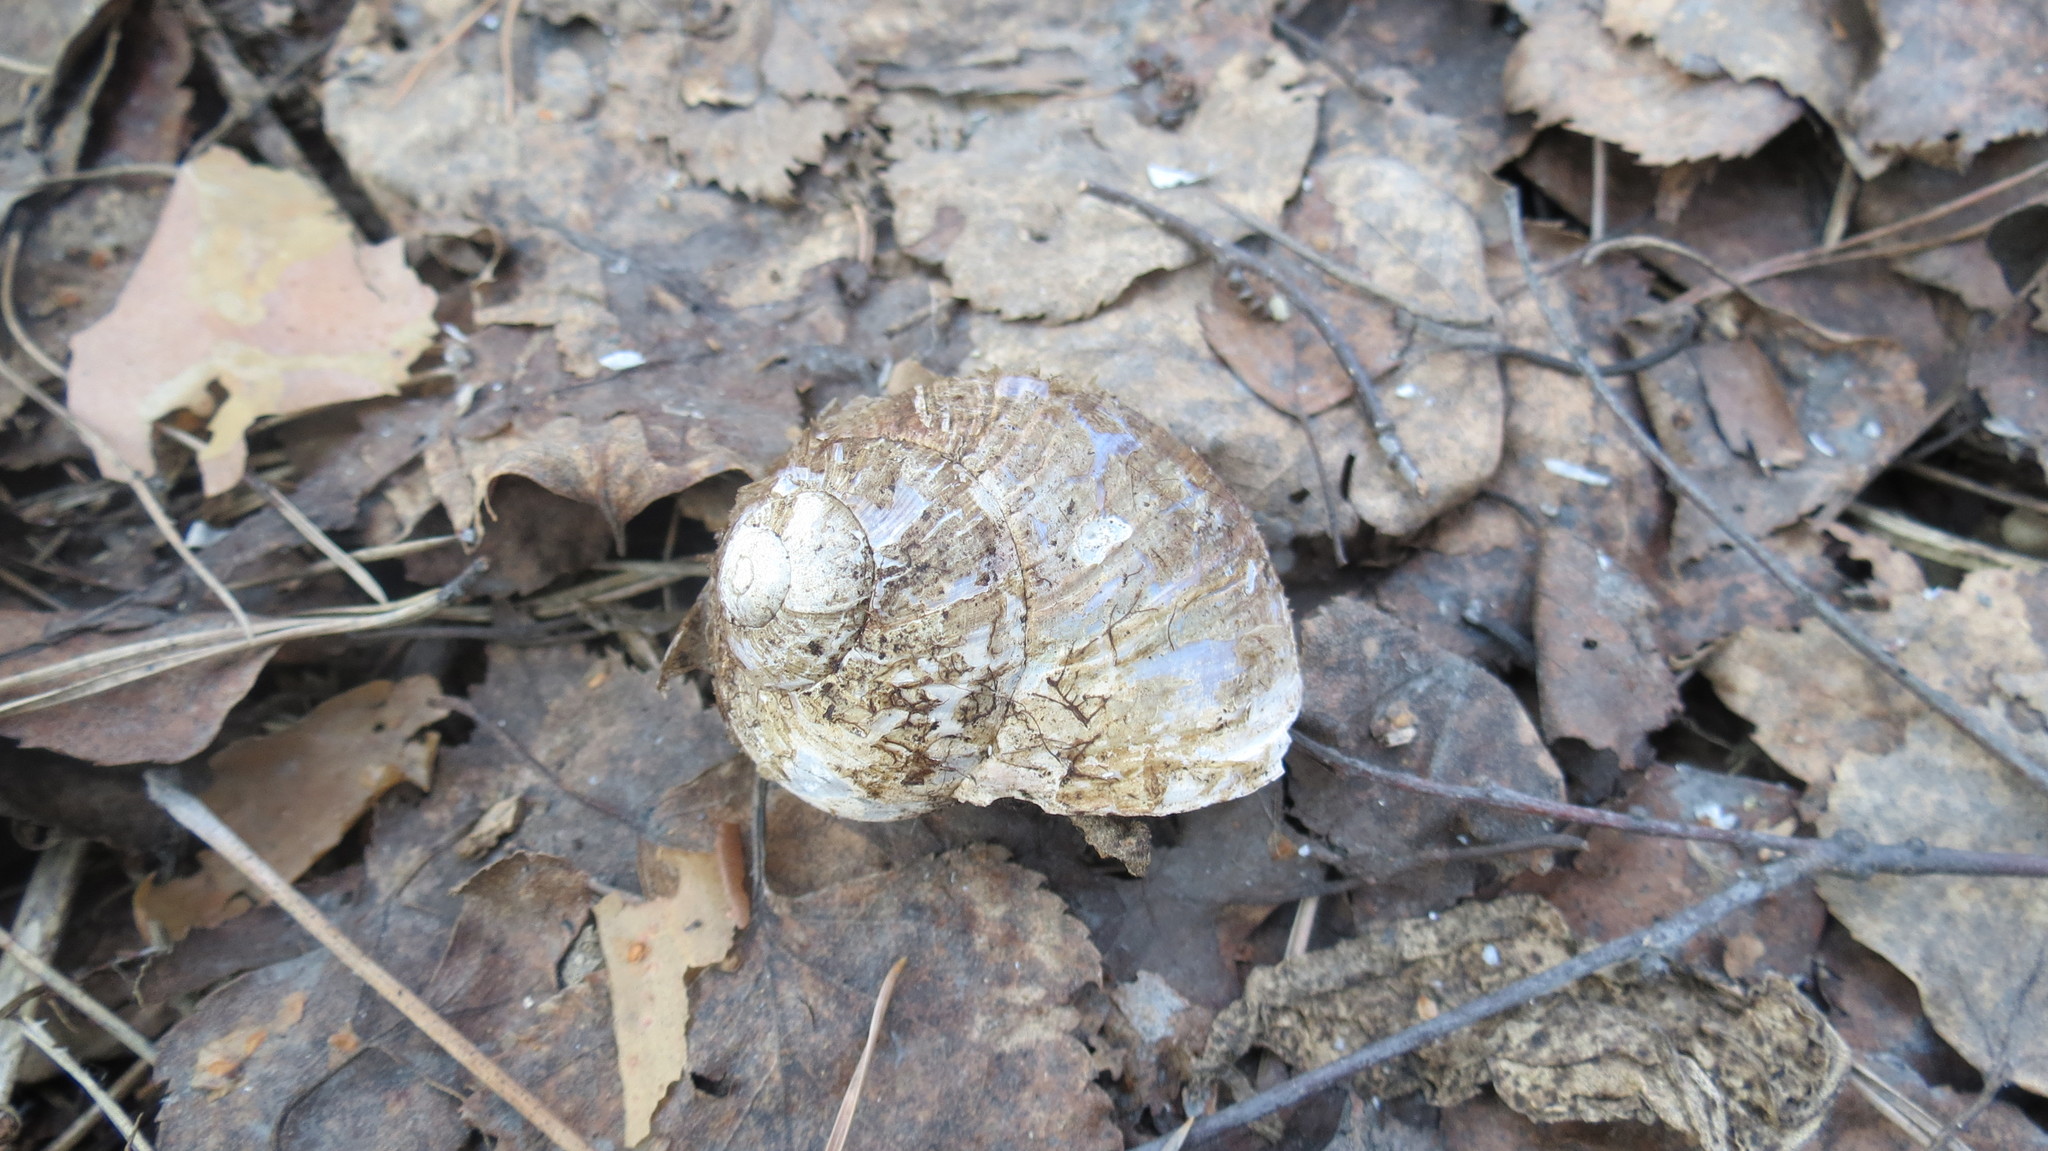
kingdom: Animalia
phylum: Mollusca
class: Gastropoda
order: Stylommatophora
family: Helicidae
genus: Helix
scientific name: Helix pomatia
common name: Roman snail
